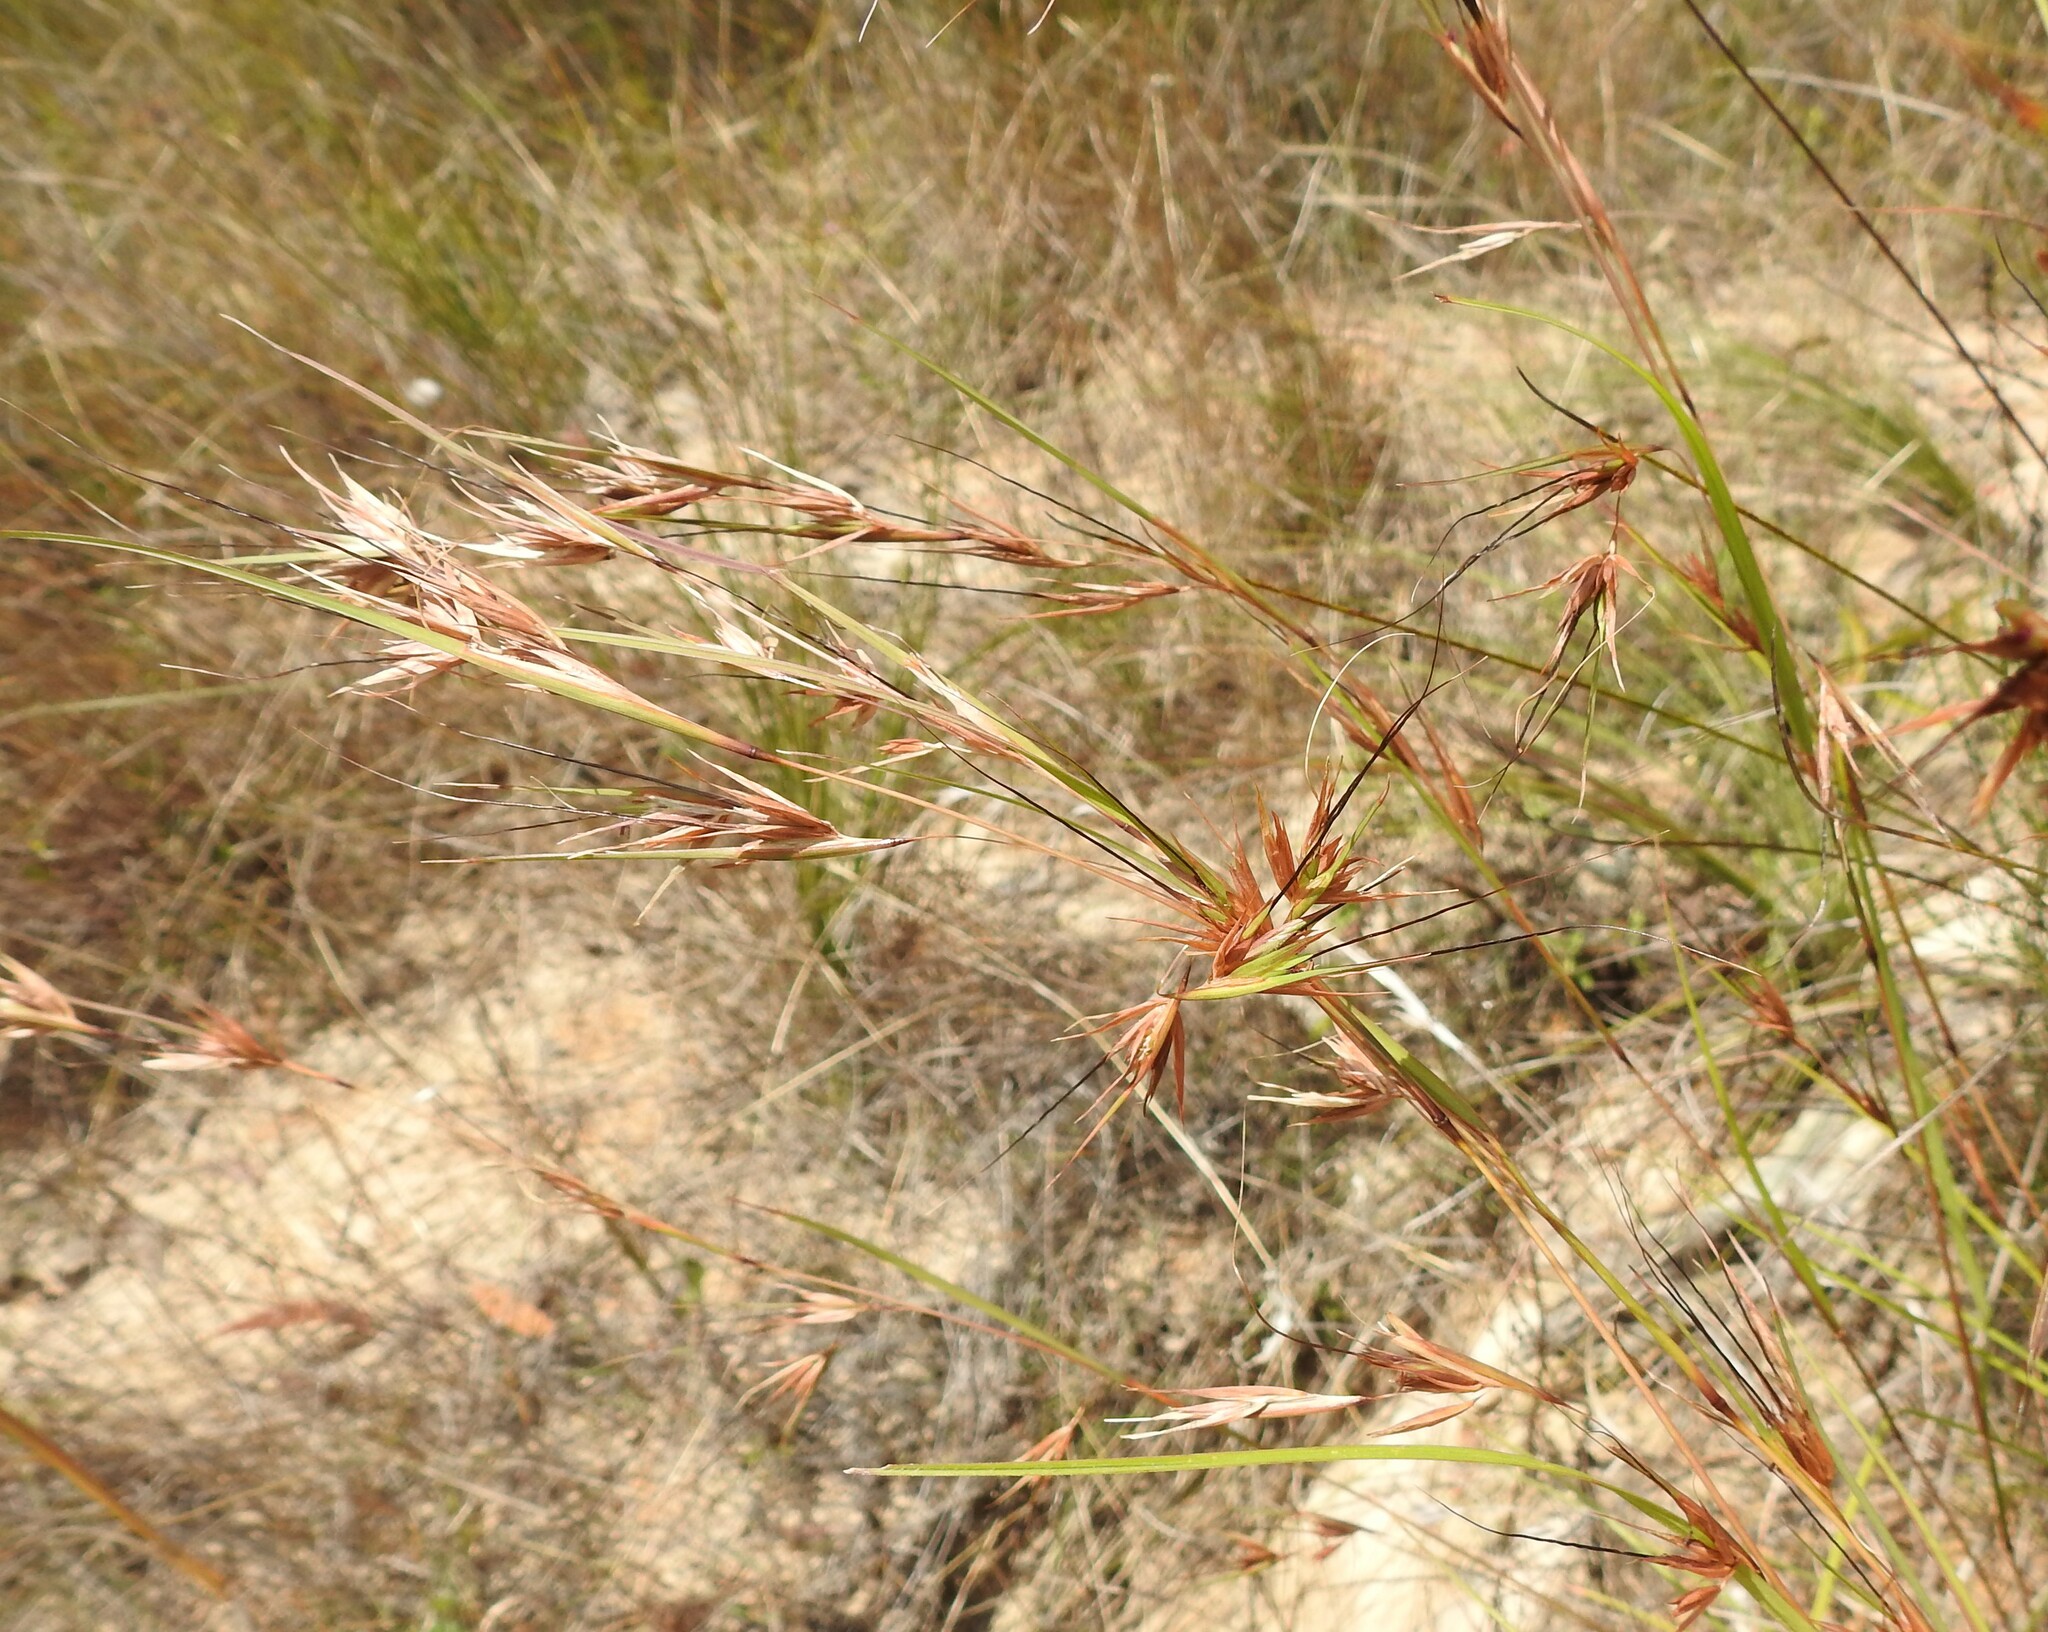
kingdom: Plantae
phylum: Tracheophyta
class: Liliopsida
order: Poales
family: Poaceae
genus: Themeda
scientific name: Themeda triandra
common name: Kangaroo grass
